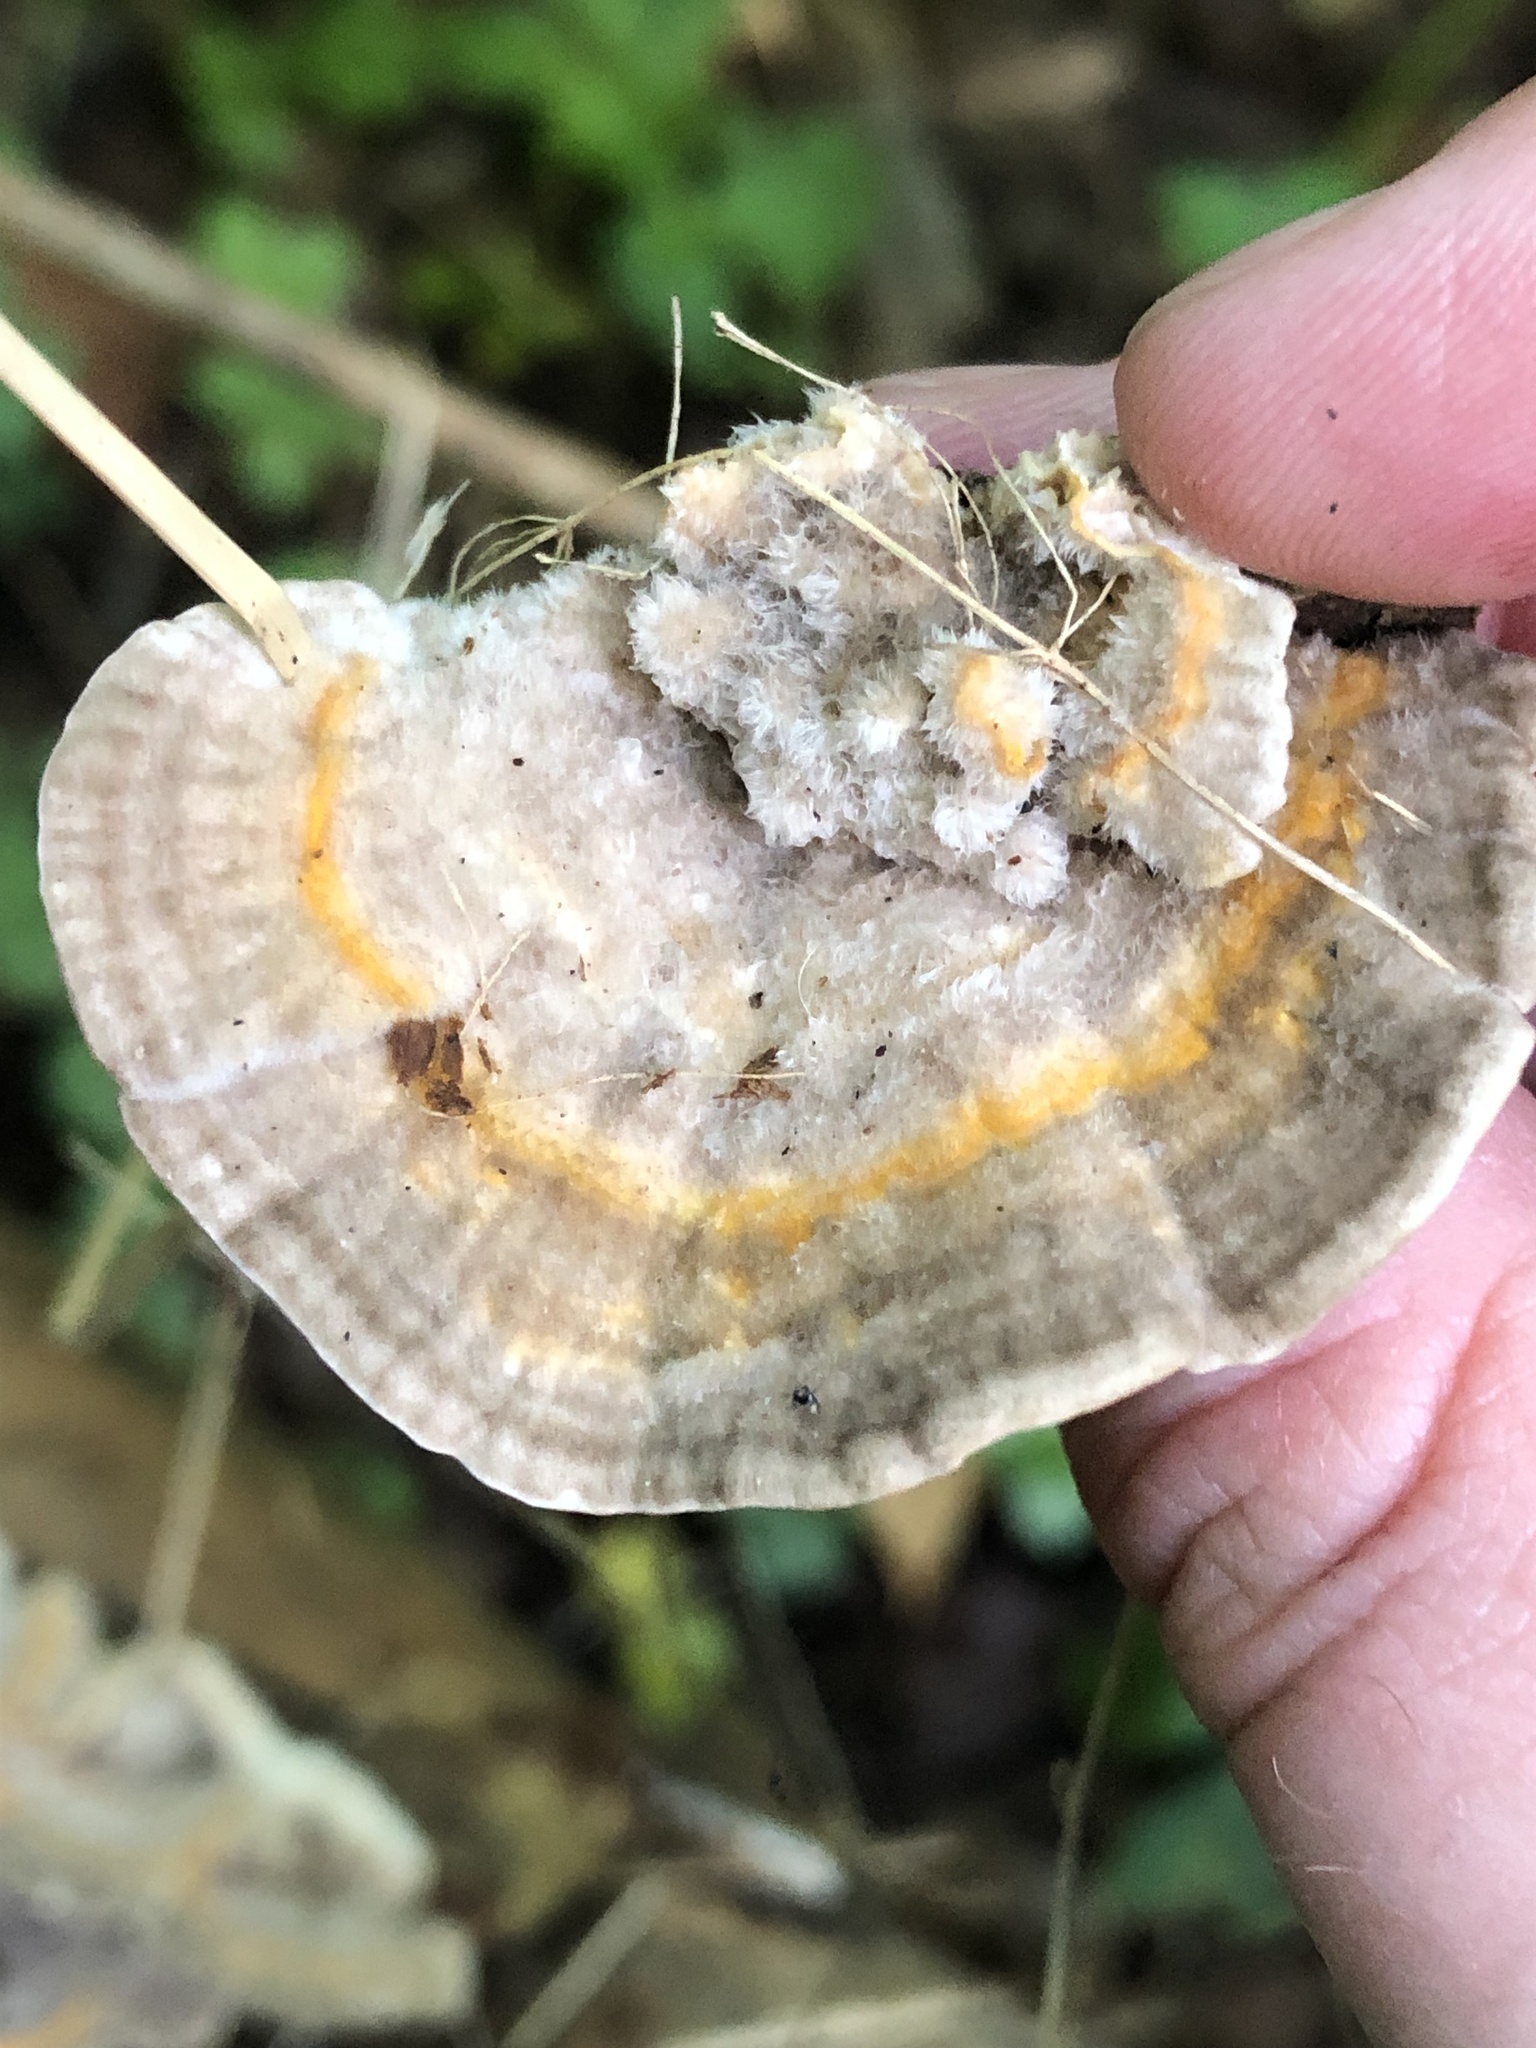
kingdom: Fungi
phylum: Basidiomycota
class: Agaricomycetes
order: Polyporales
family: Polyporaceae
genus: Lenzites
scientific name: Lenzites betulinus
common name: Birch mazegill
